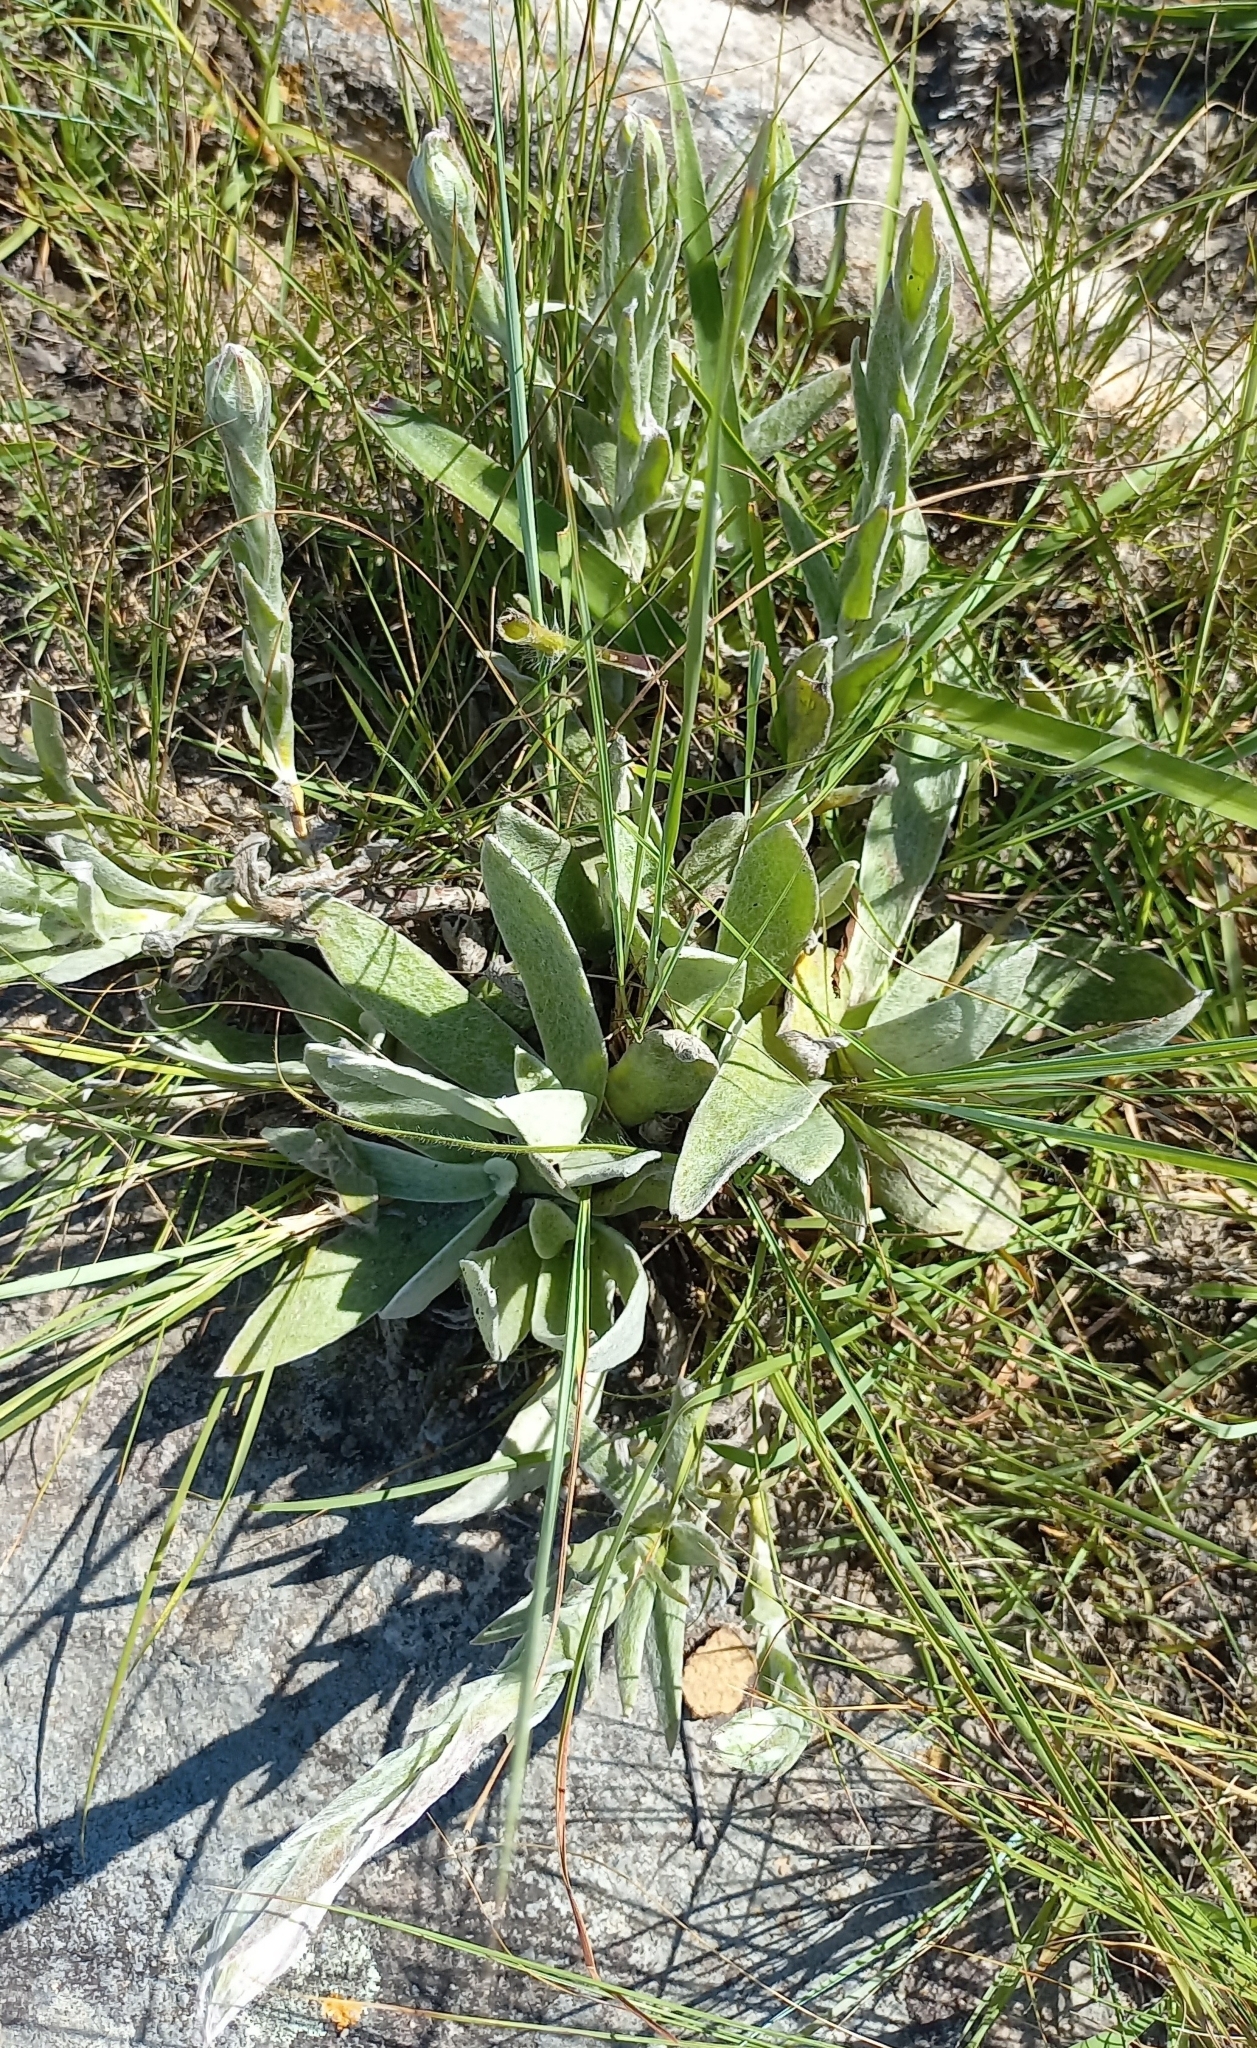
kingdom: Plantae
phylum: Tracheophyta
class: Magnoliopsida
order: Asterales
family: Asteraceae
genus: Helichrysum
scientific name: Helichrysum appendiculatum
